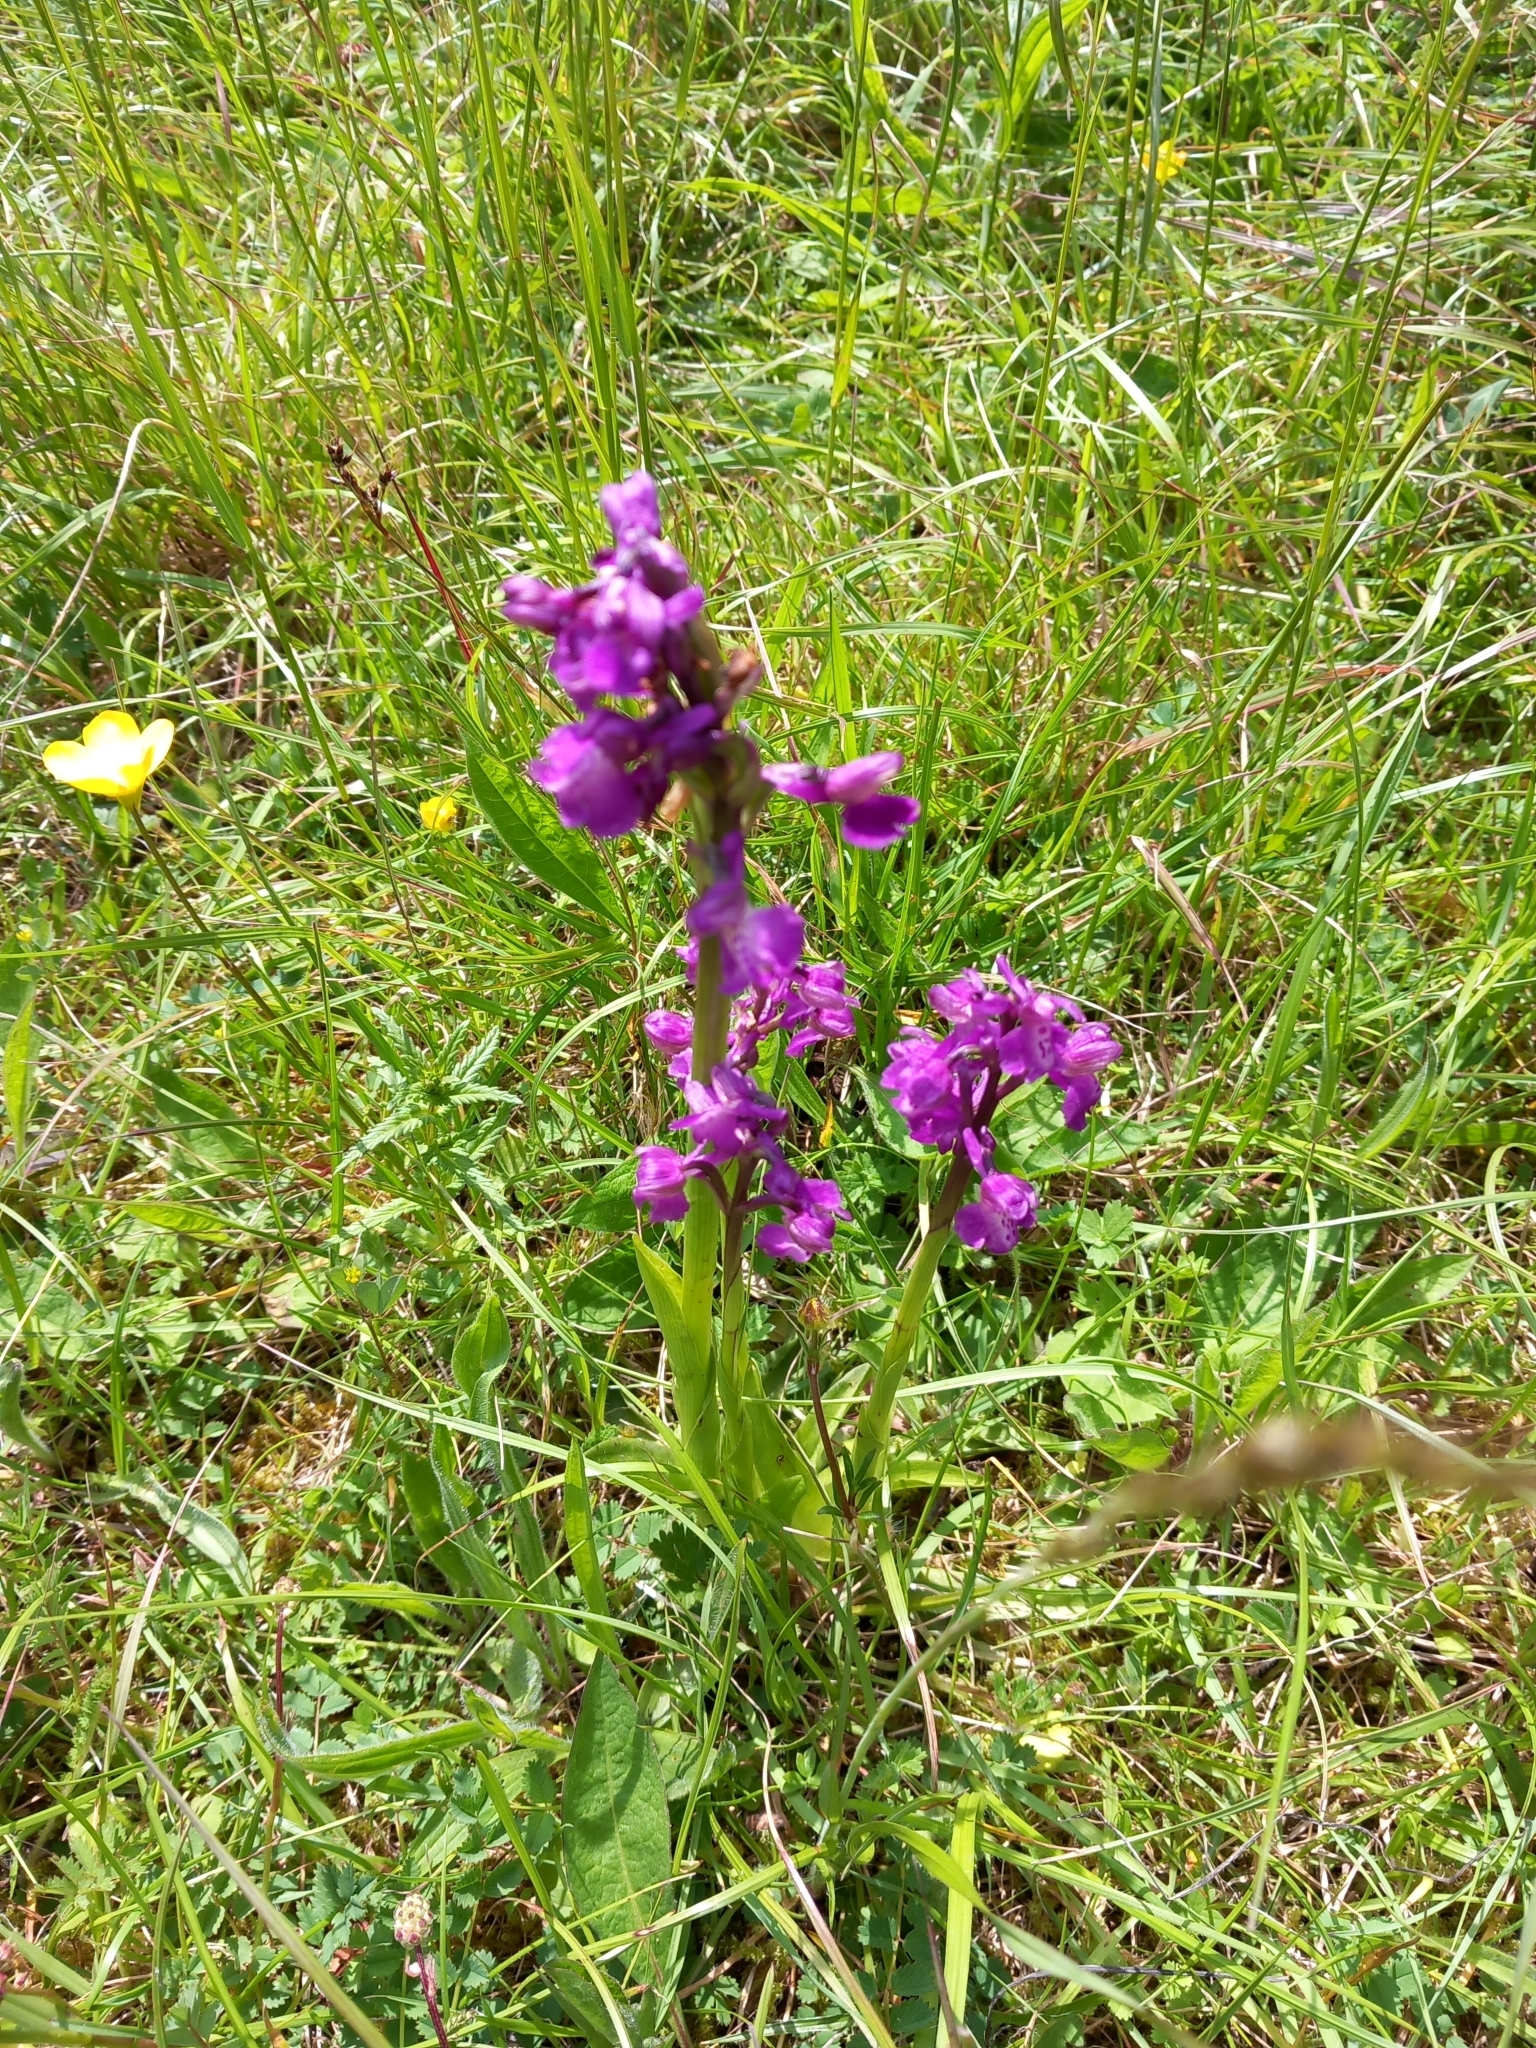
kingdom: Plantae
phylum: Tracheophyta
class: Liliopsida
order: Asparagales
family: Orchidaceae
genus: Anacamptis
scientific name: Anacamptis morio
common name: Green-winged orchid
